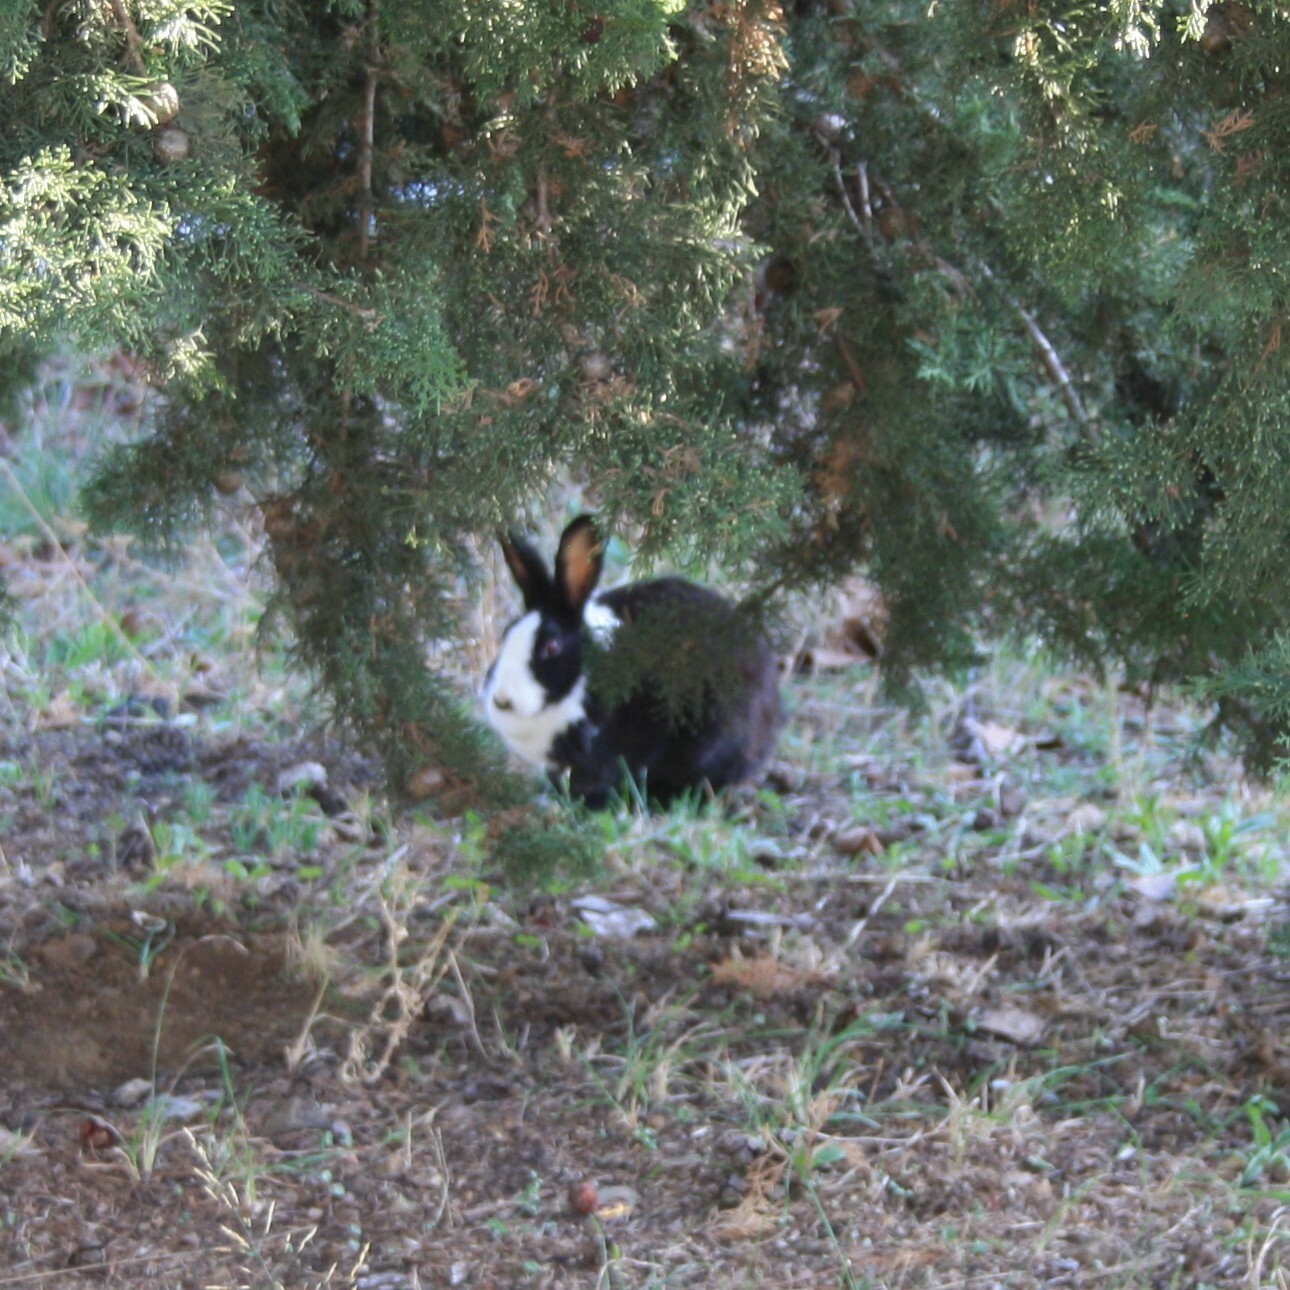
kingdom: Animalia
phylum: Chordata
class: Mammalia
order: Lagomorpha
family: Leporidae
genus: Oryctolagus
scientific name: Oryctolagus cuniculus
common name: European rabbit
